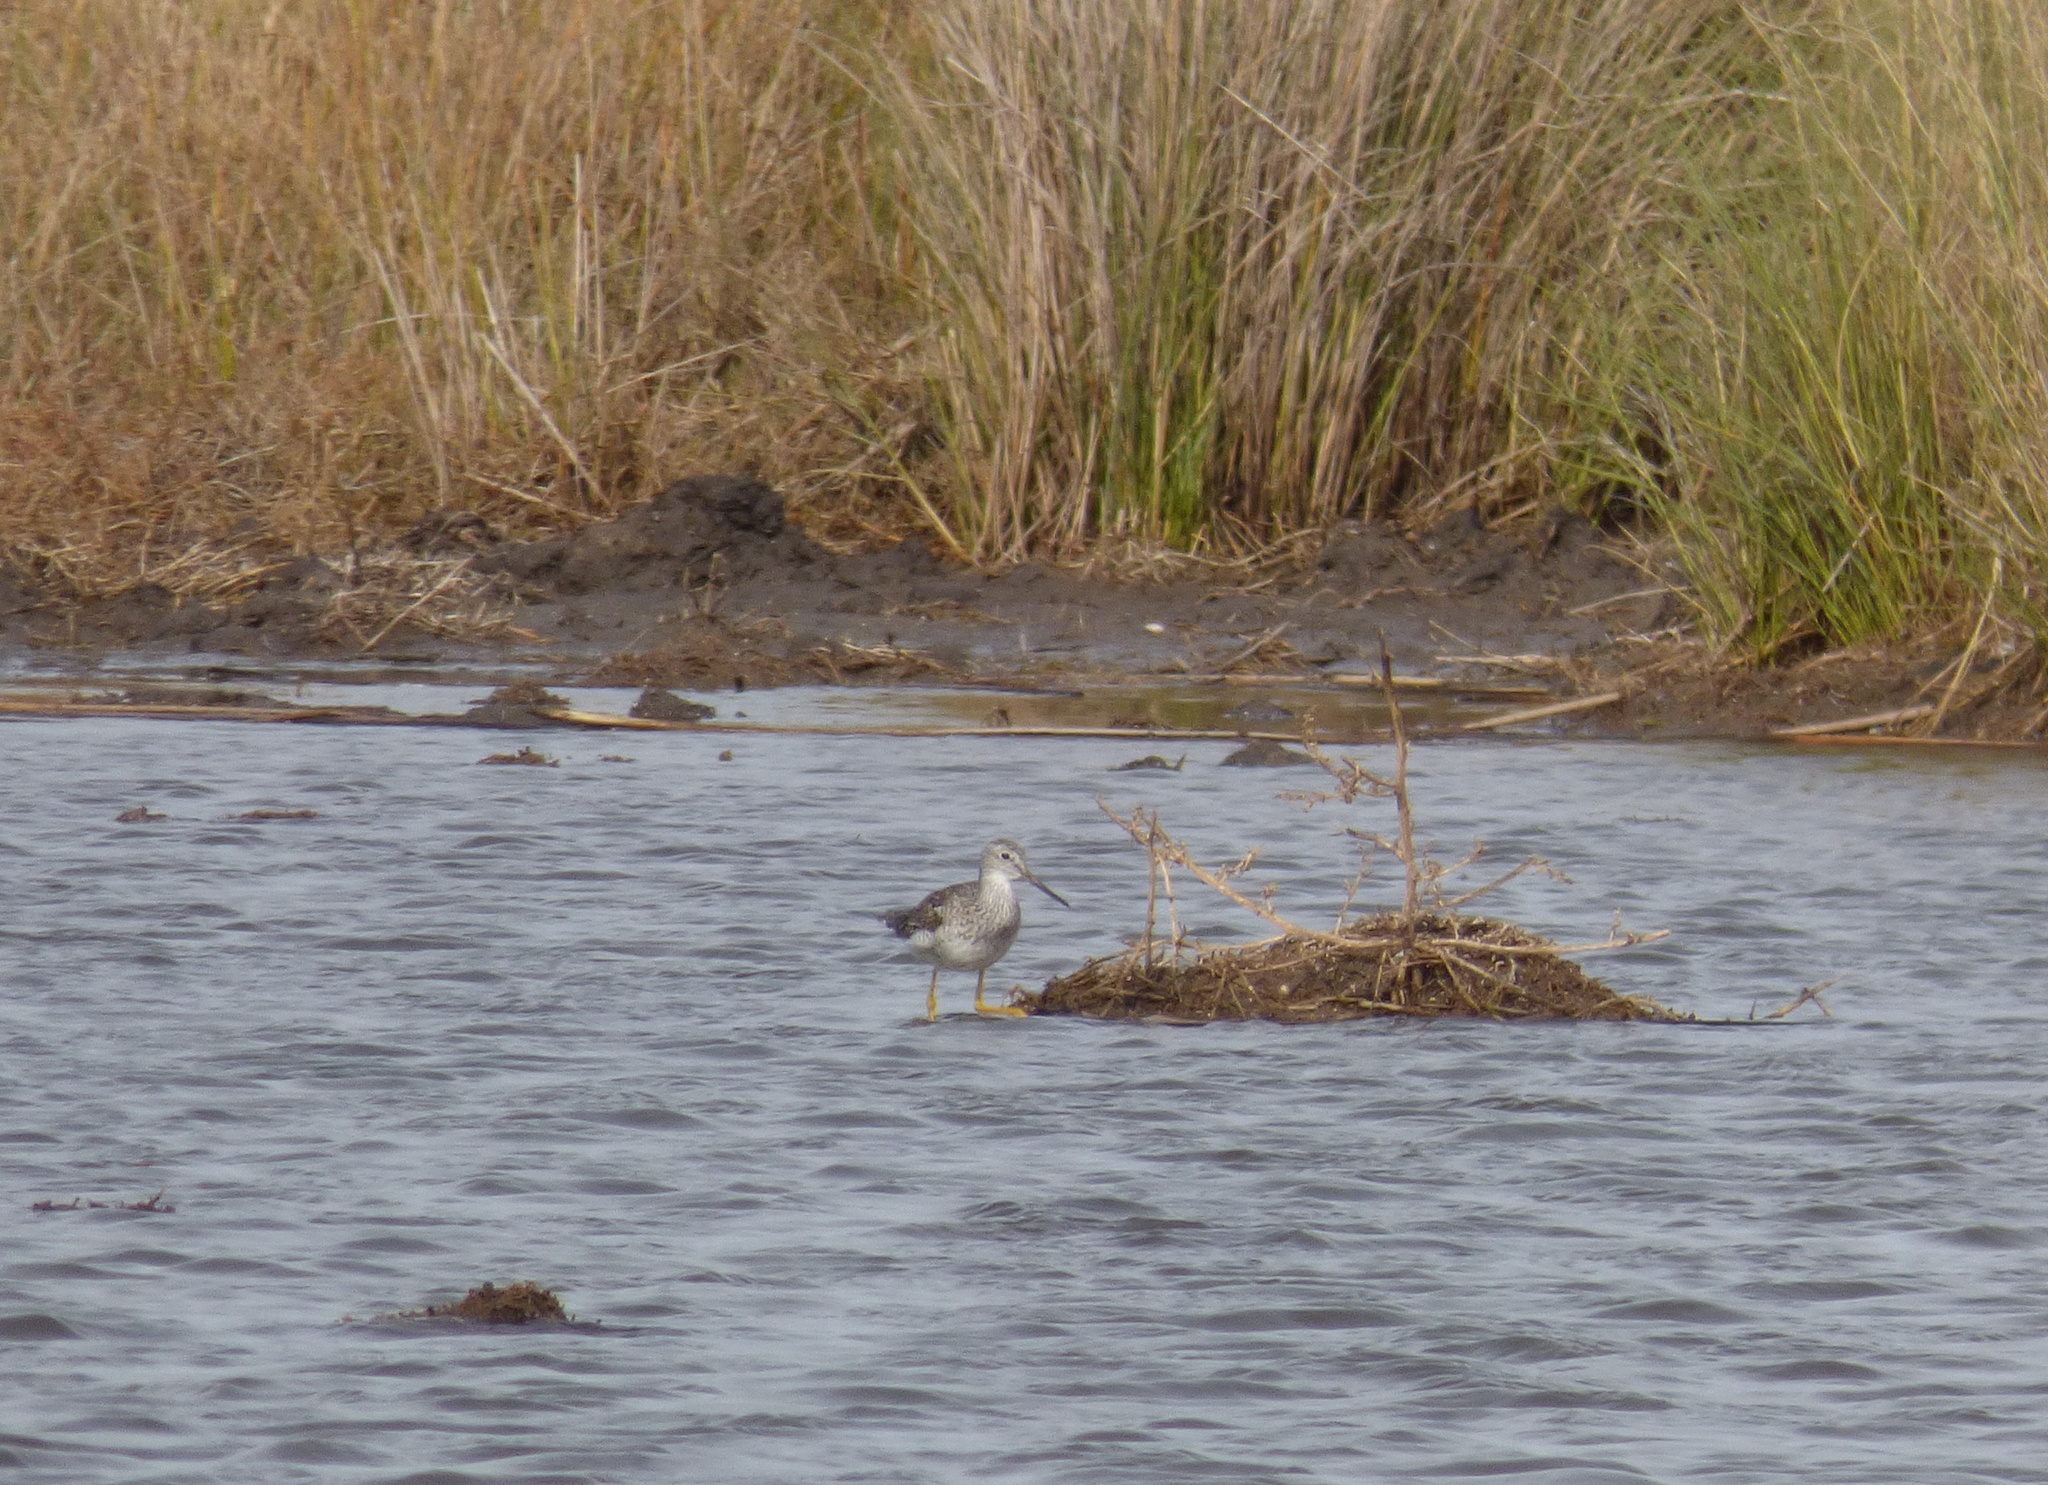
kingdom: Animalia
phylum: Chordata
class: Aves
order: Charadriiformes
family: Scolopacidae
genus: Tringa
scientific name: Tringa melanoleuca
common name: Greater yellowlegs
